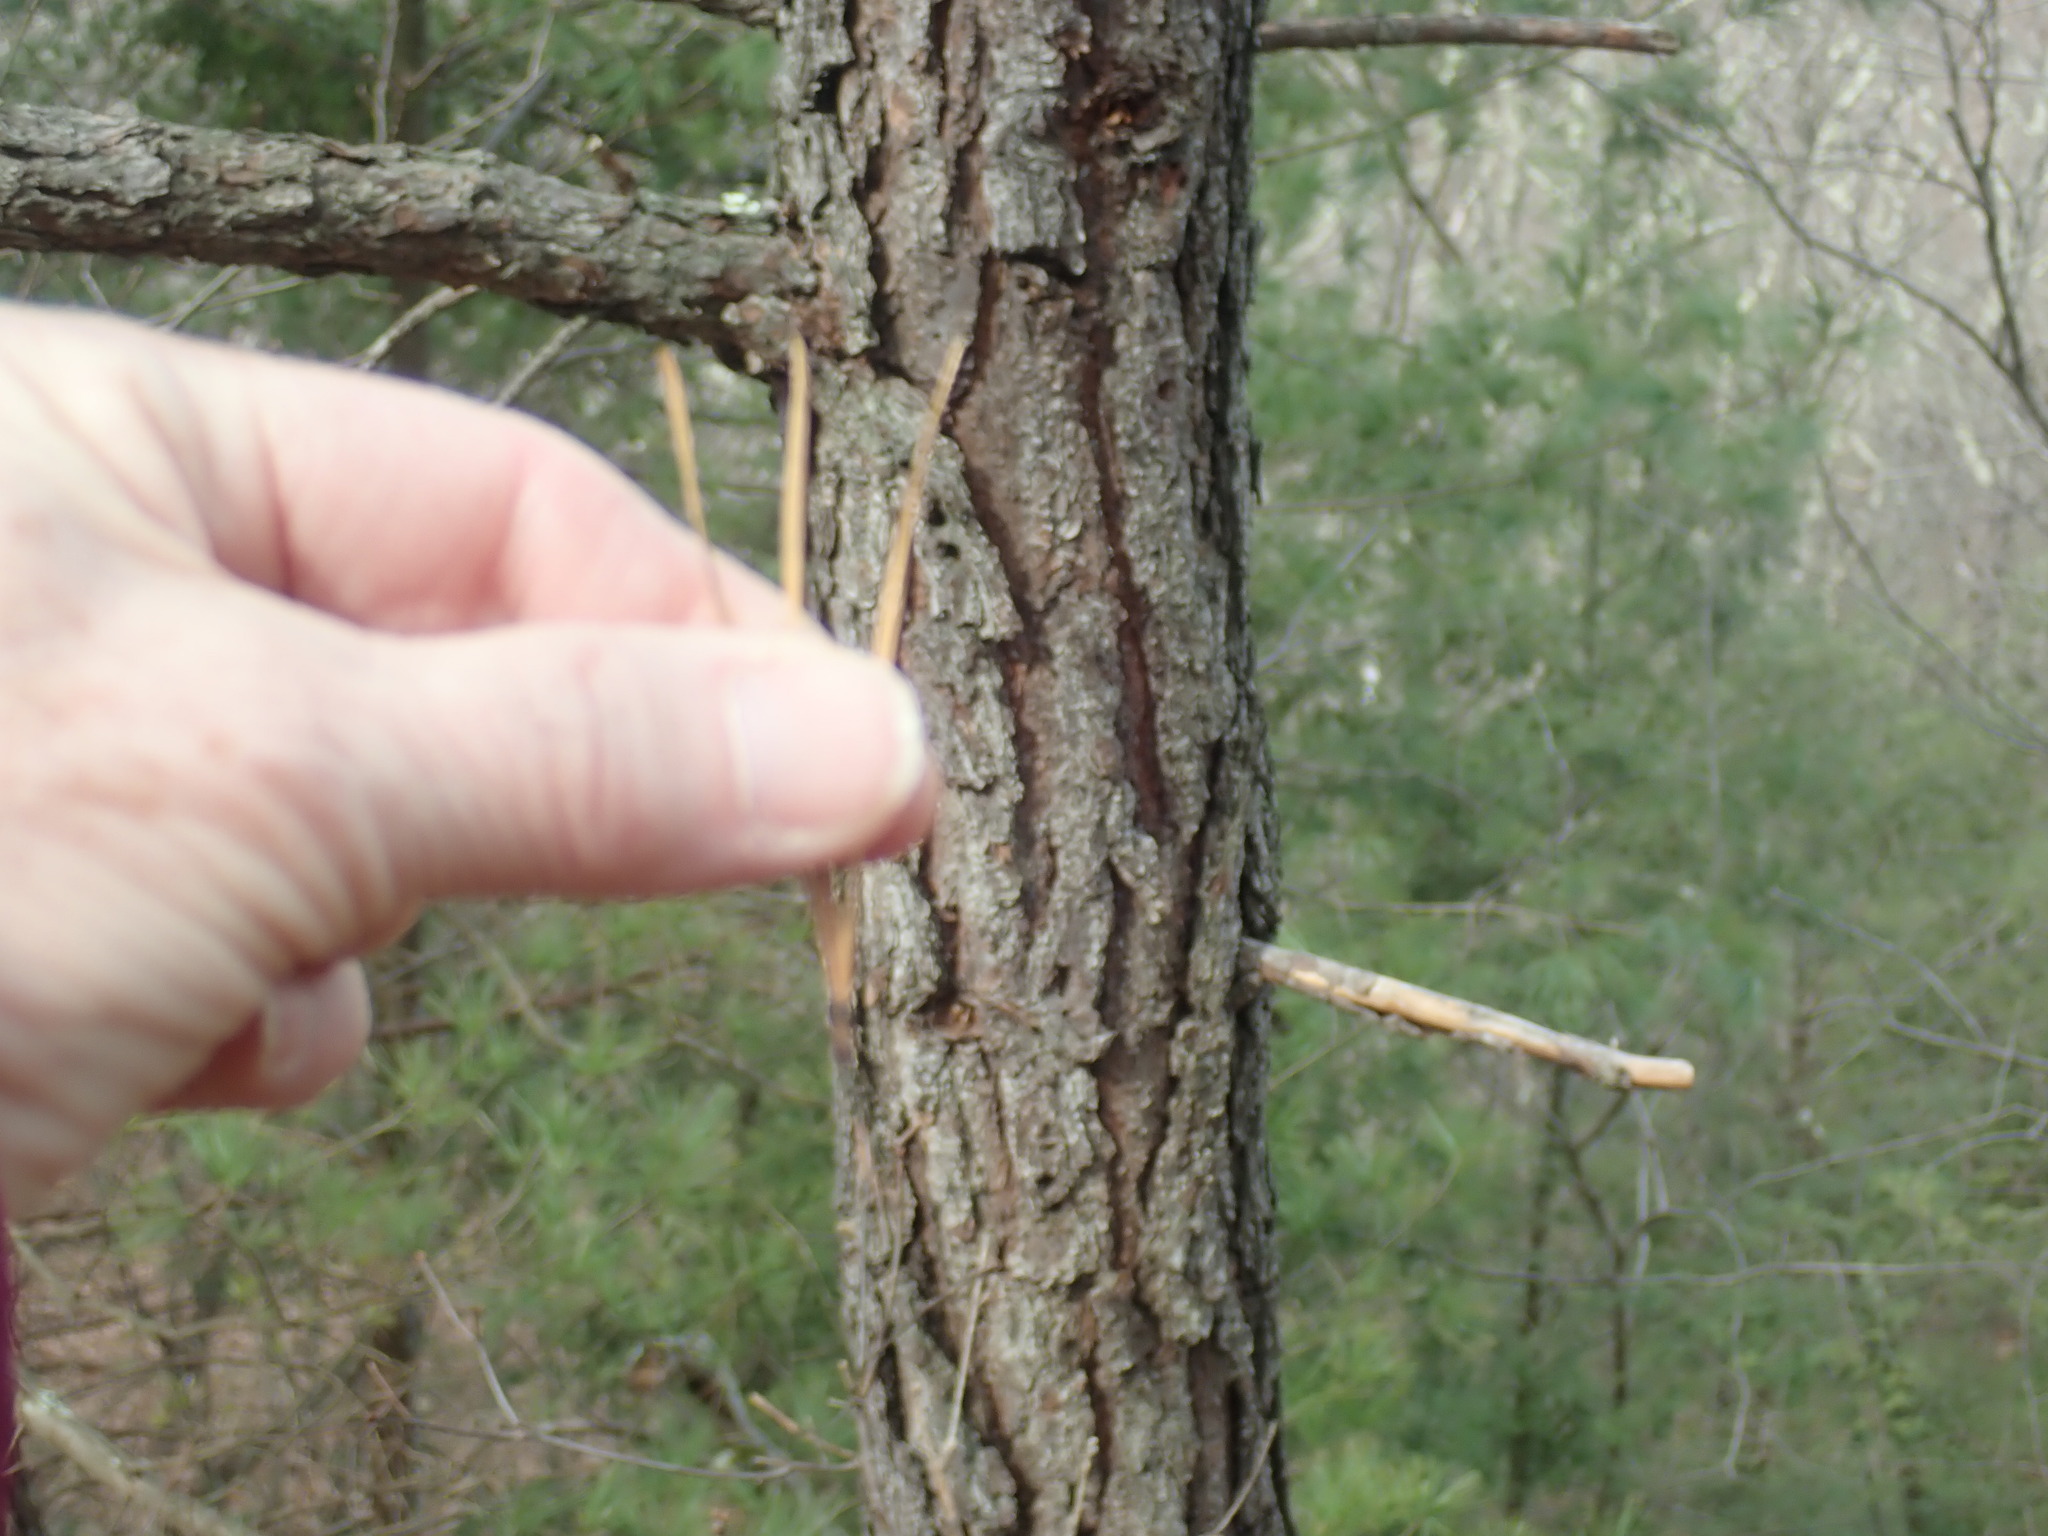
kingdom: Plantae
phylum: Tracheophyta
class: Pinopsida
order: Pinales
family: Pinaceae
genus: Pinus
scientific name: Pinus rigida
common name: Pitch pine
